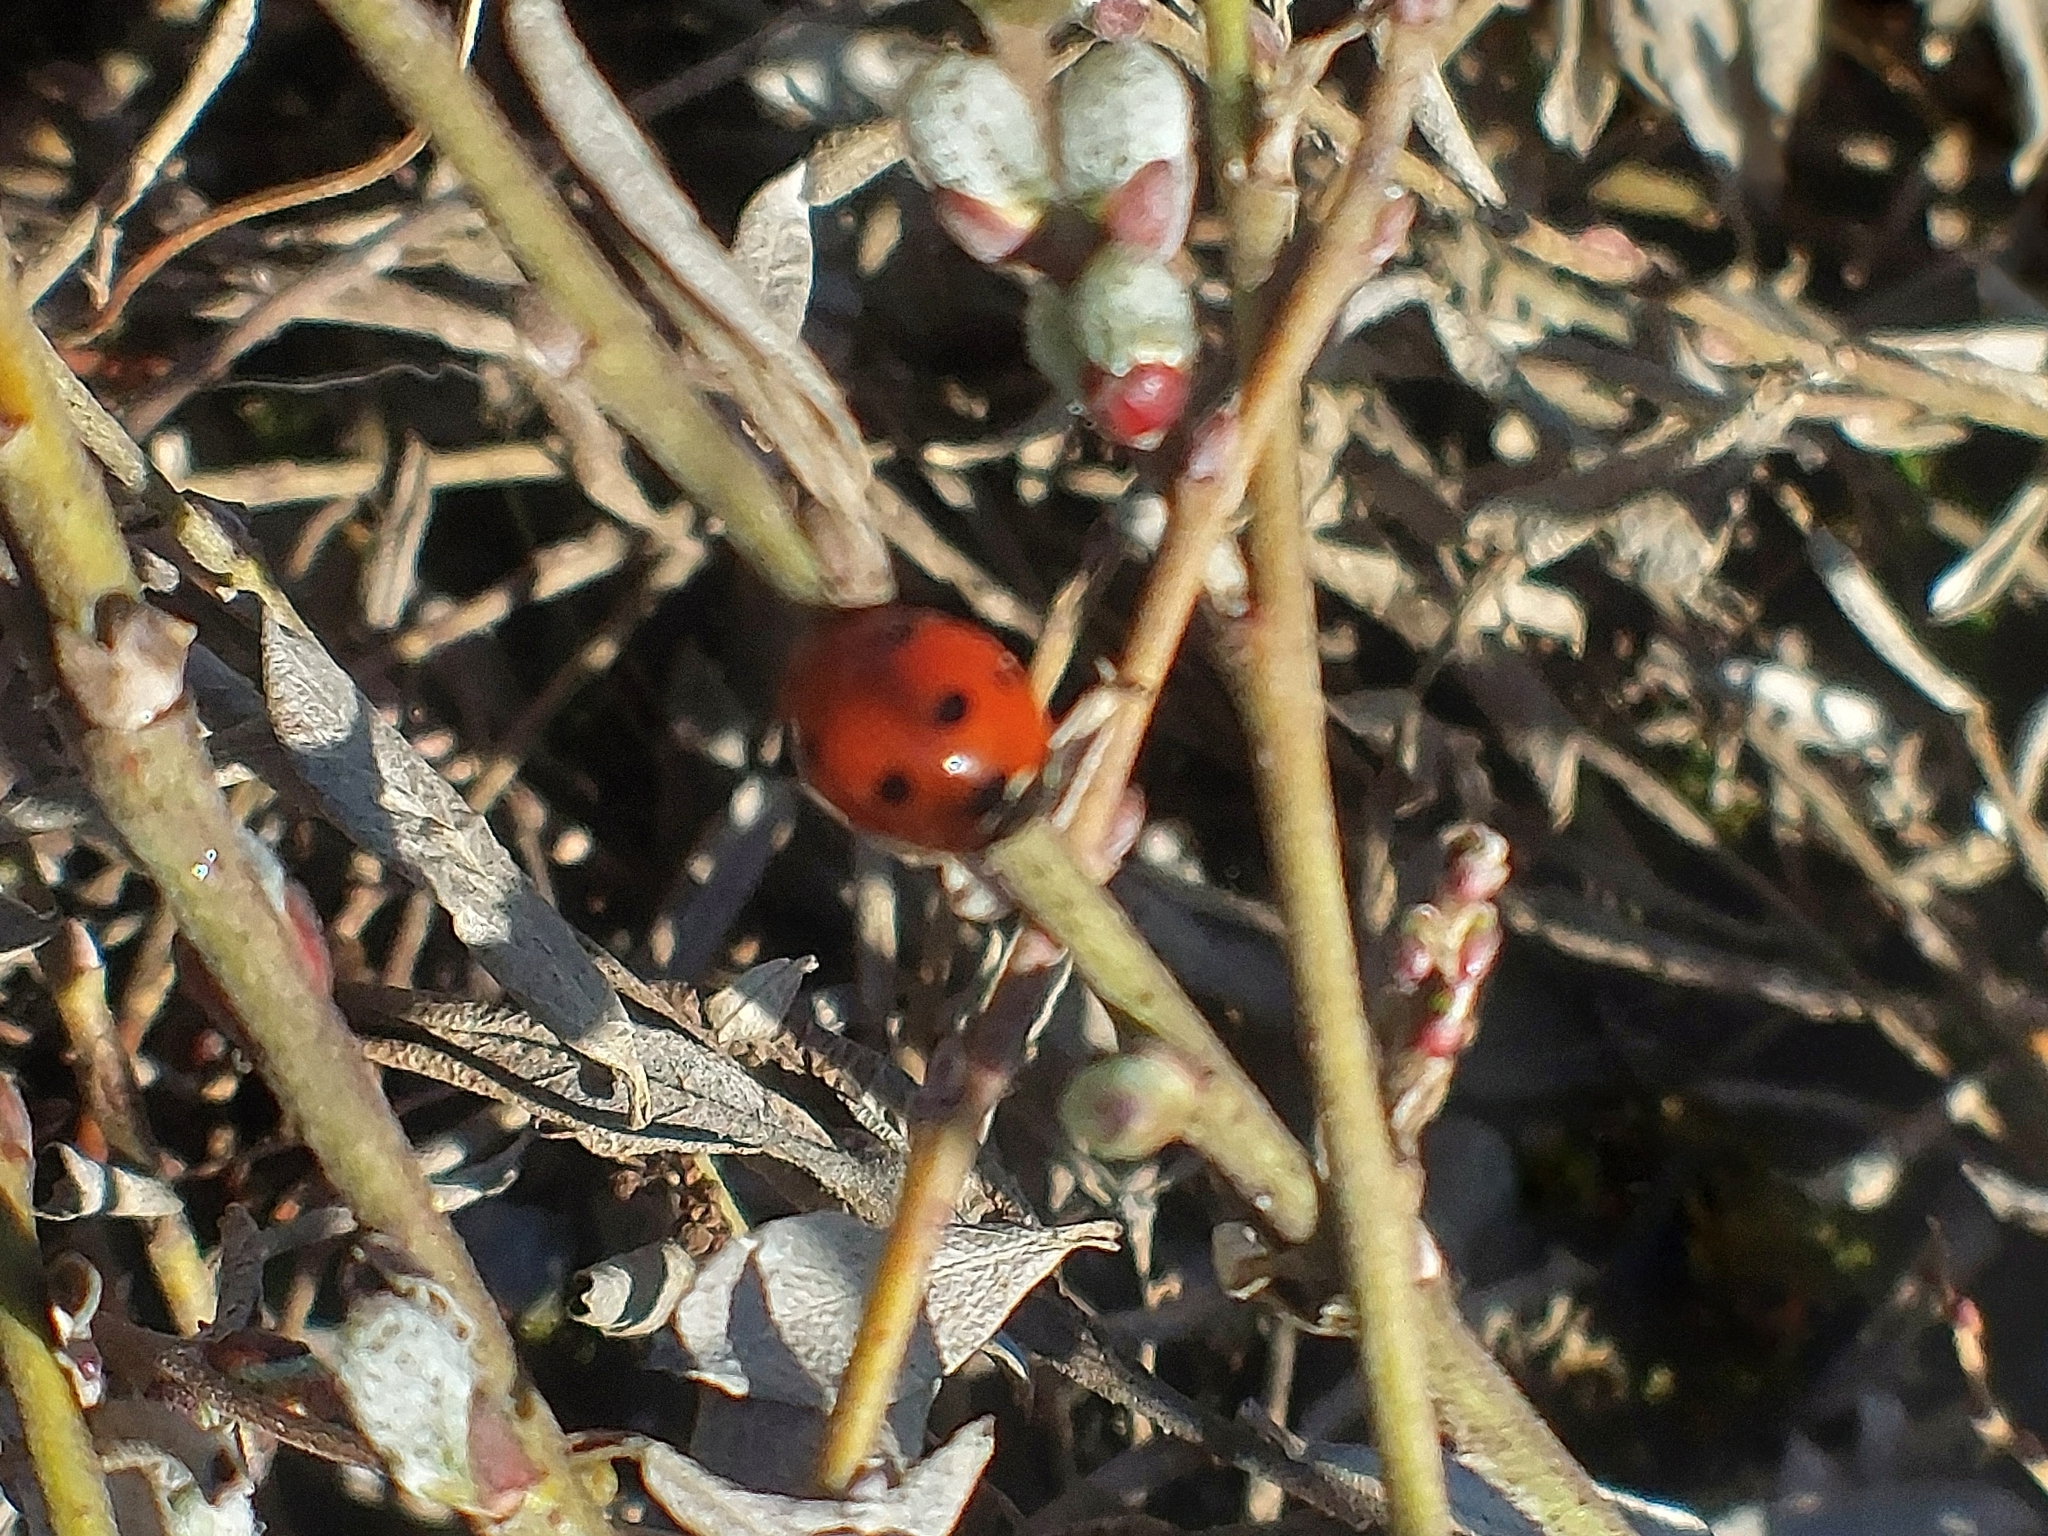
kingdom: Animalia
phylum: Arthropoda
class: Insecta
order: Coleoptera
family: Coccinellidae
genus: Coccinella
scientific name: Coccinella septempunctata
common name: Sevenspotted lady beetle
